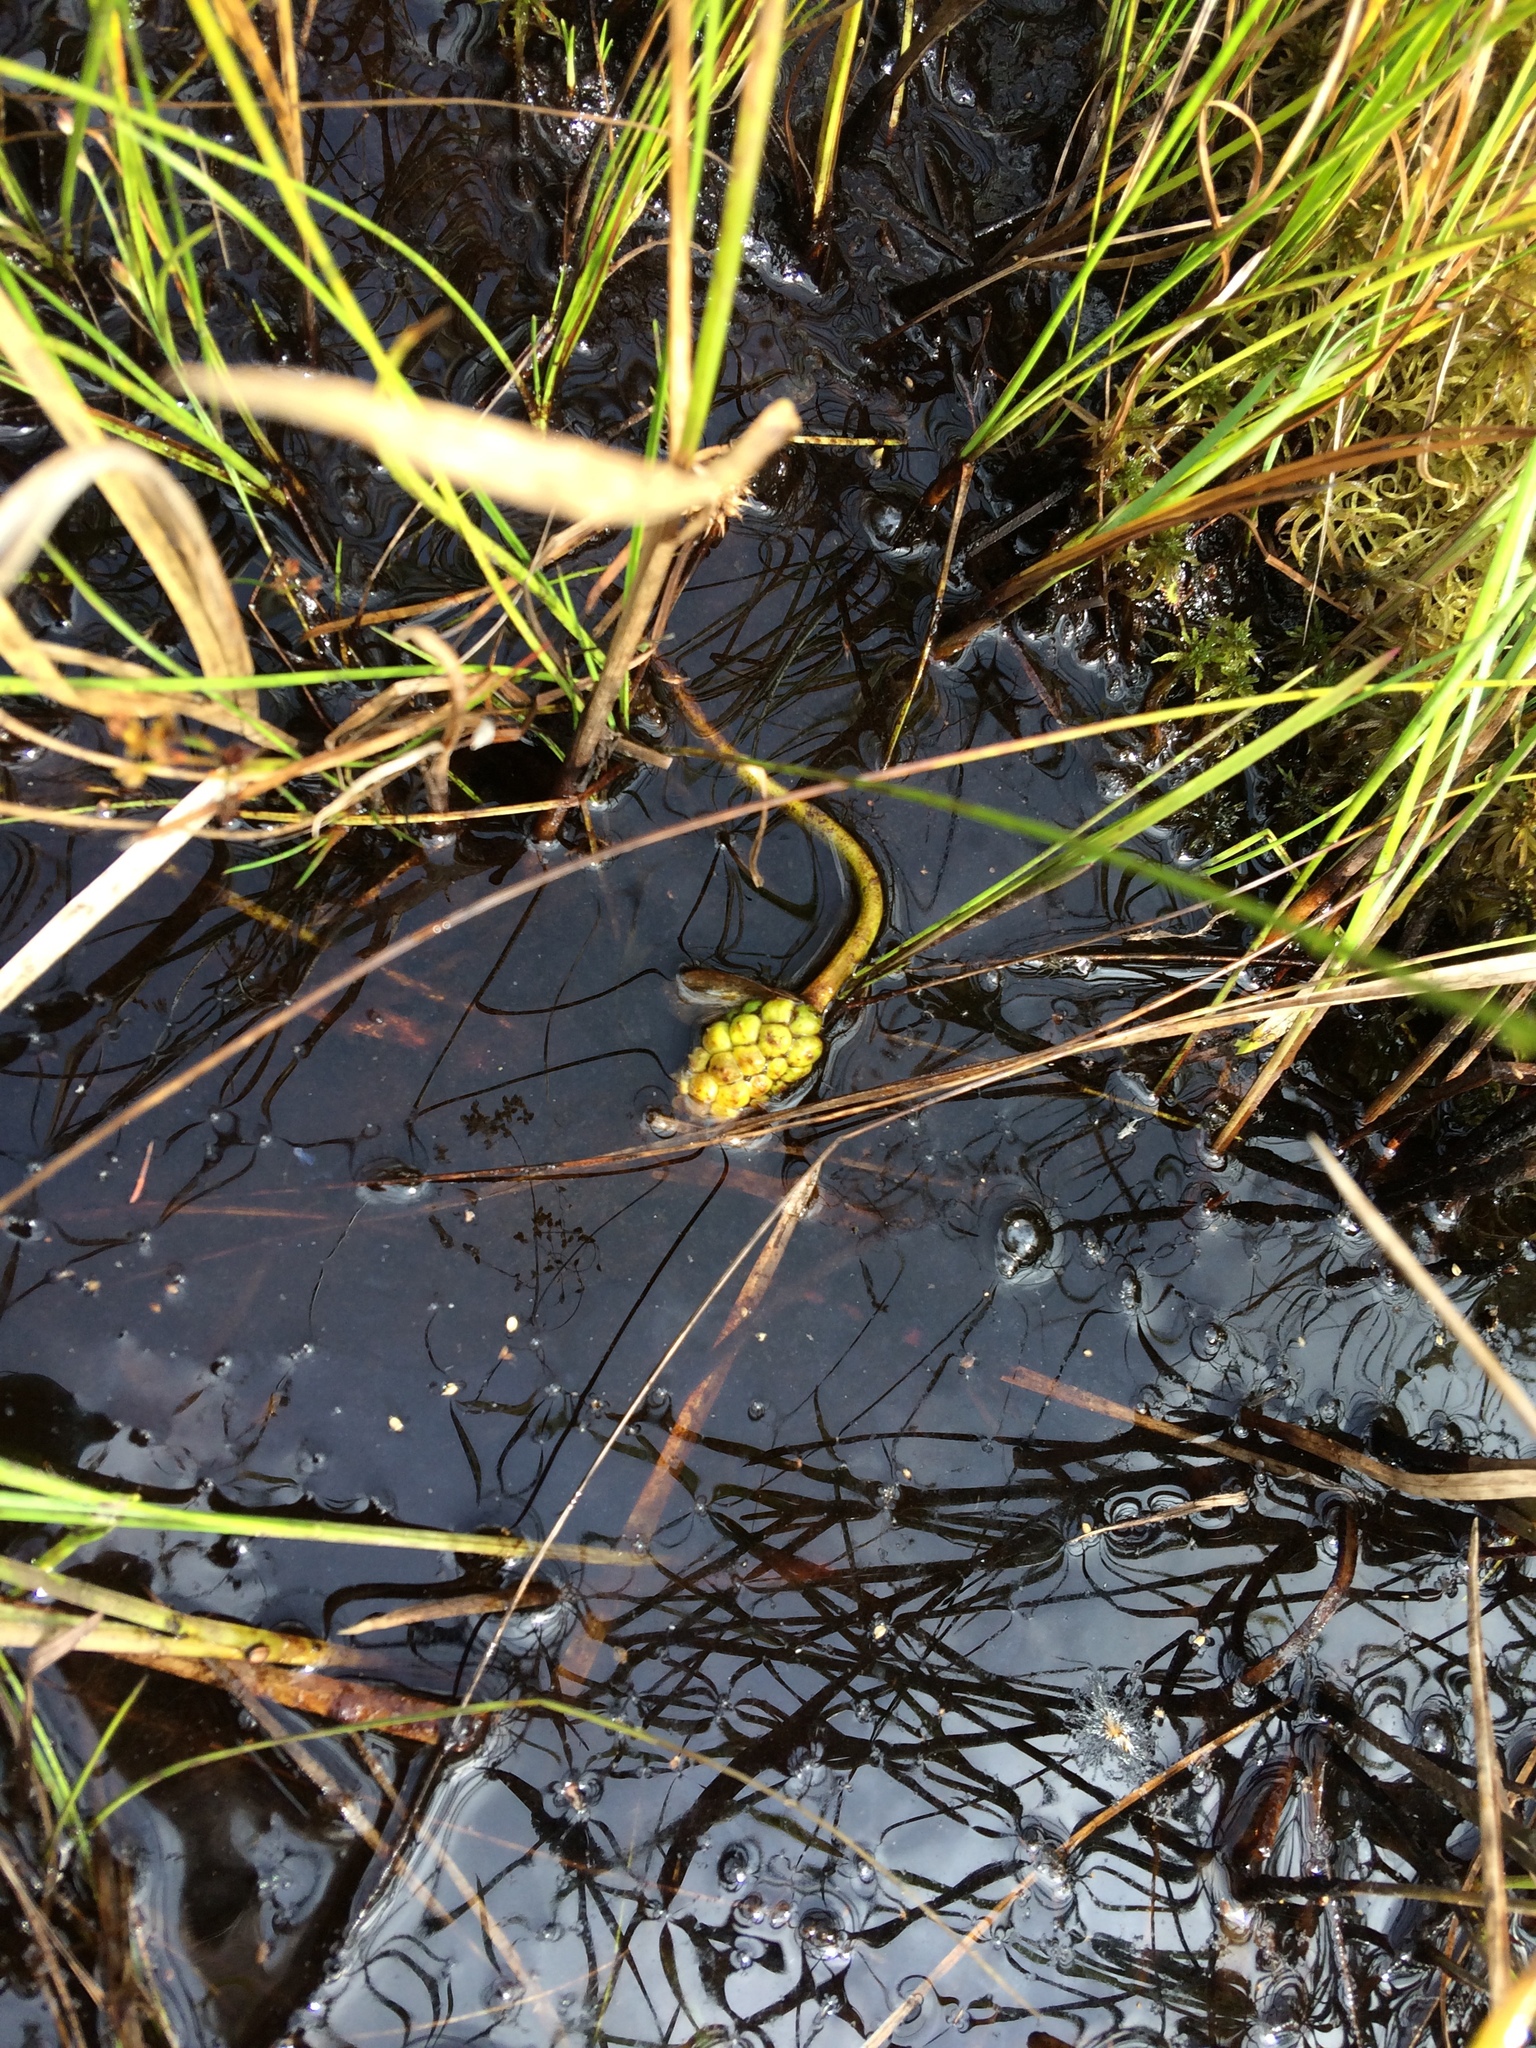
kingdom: Plantae
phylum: Tracheophyta
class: Liliopsida
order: Alismatales
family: Araceae
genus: Calla
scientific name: Calla palustris
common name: Bog arum
